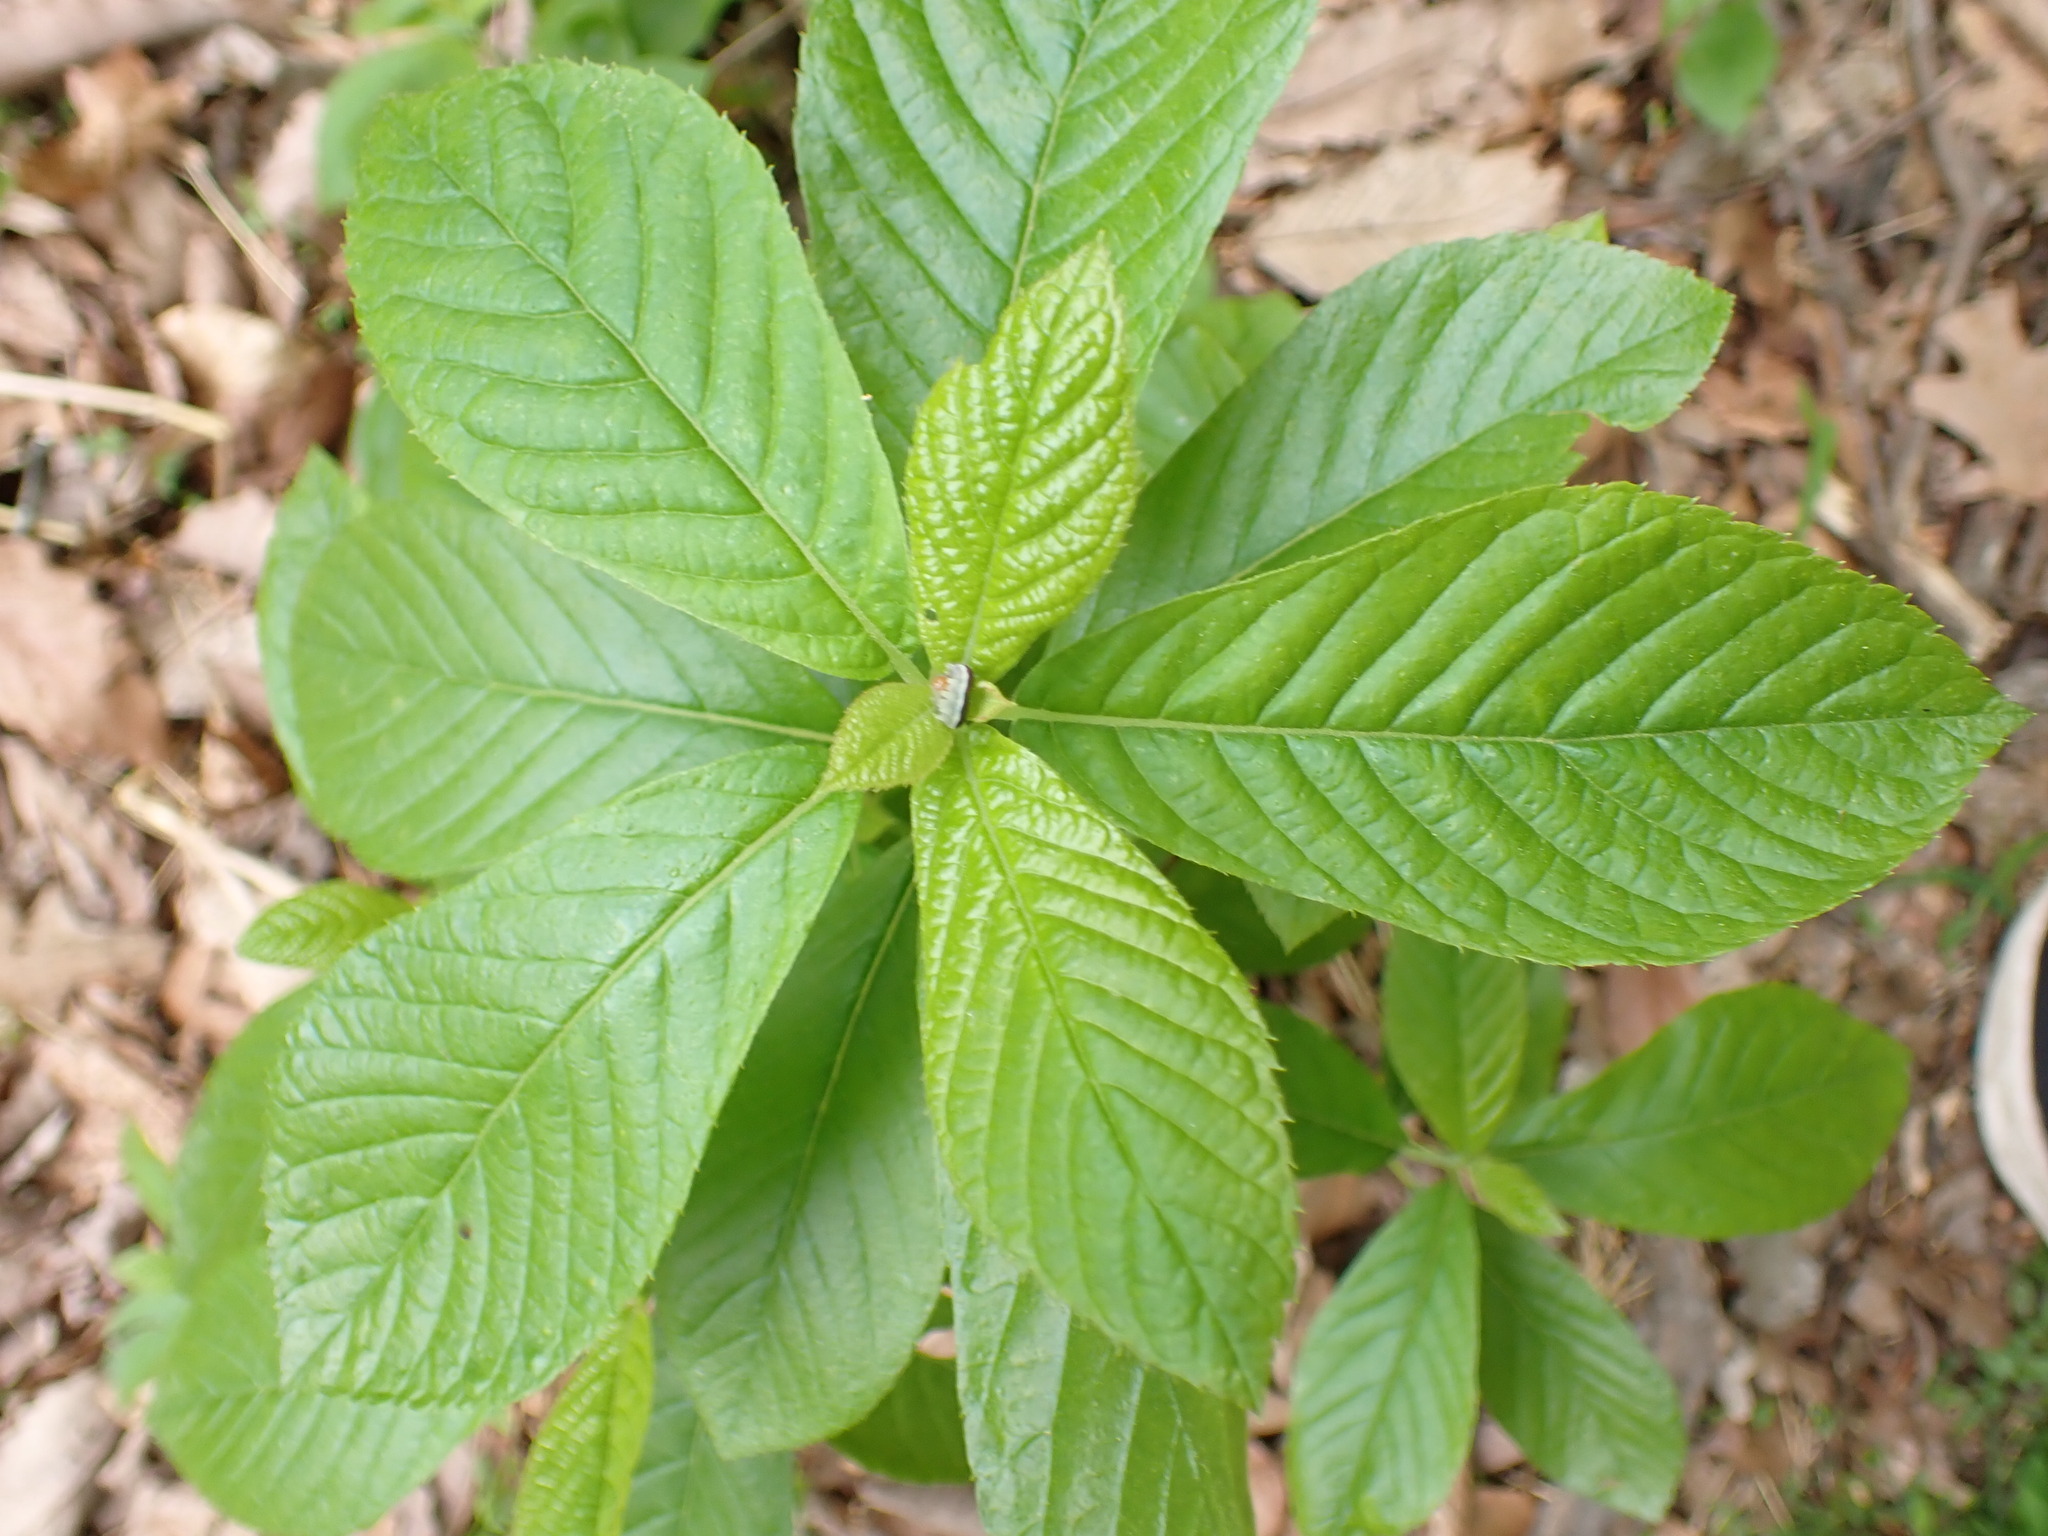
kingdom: Plantae
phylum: Tracheophyta
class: Magnoliopsida
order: Ericales
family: Clethraceae
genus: Clethra
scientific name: Clethra alnifolia
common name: Sweet pepperbush
